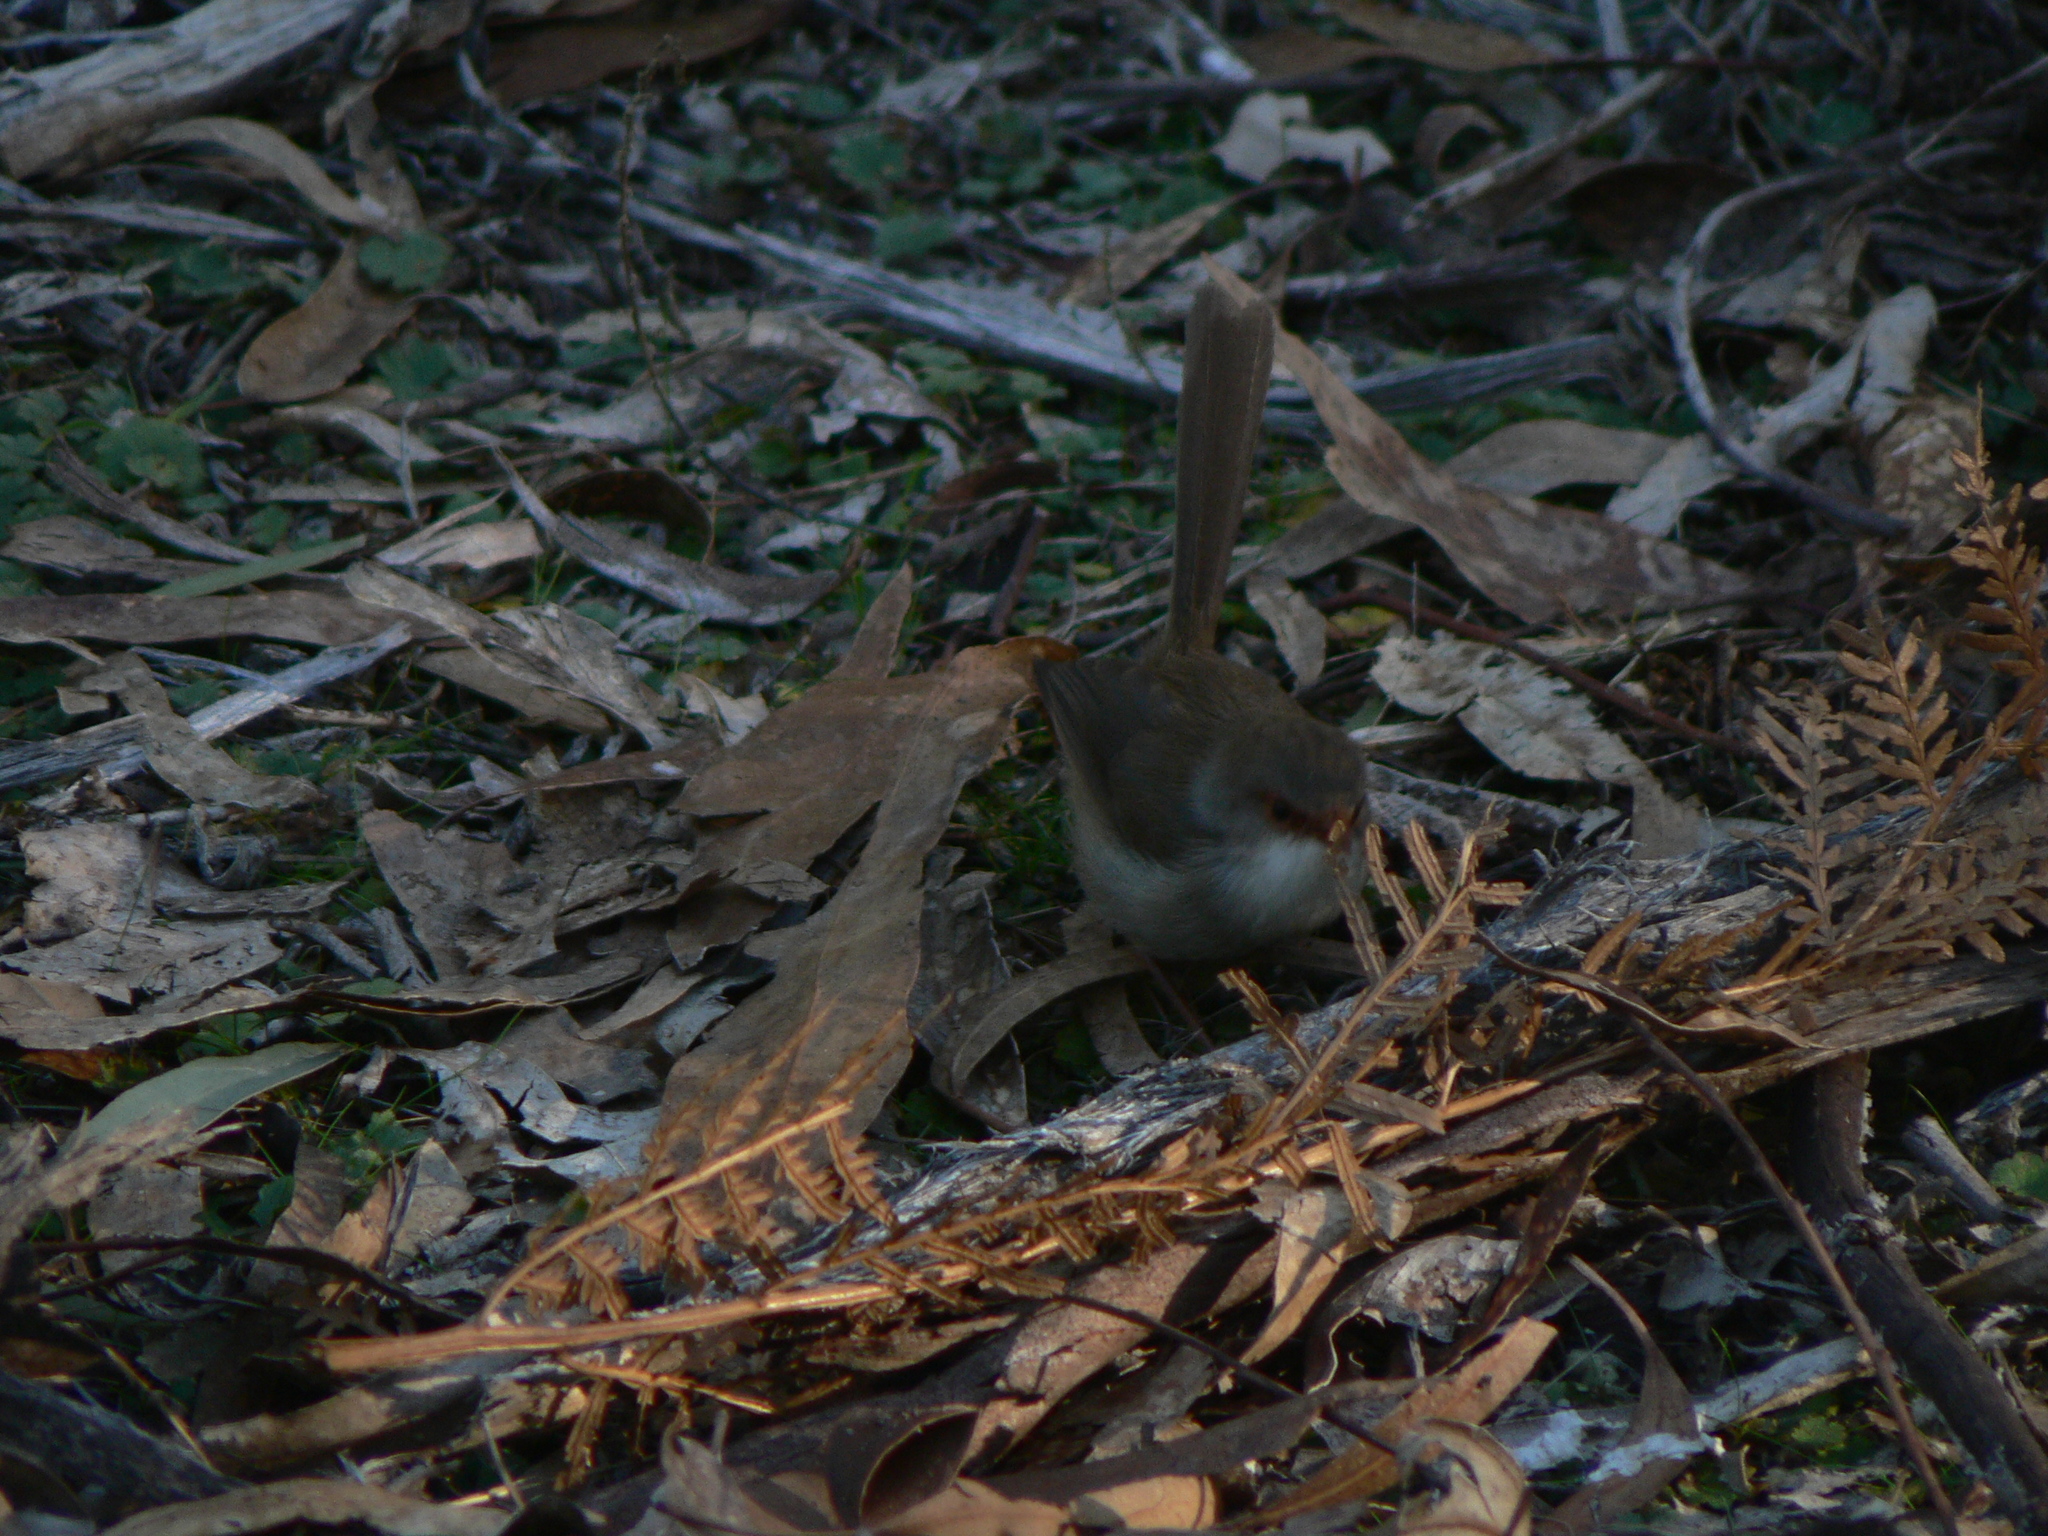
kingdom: Animalia
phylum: Chordata
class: Aves
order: Passeriformes
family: Maluridae
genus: Malurus
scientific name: Malurus cyaneus
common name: Superb fairywren
